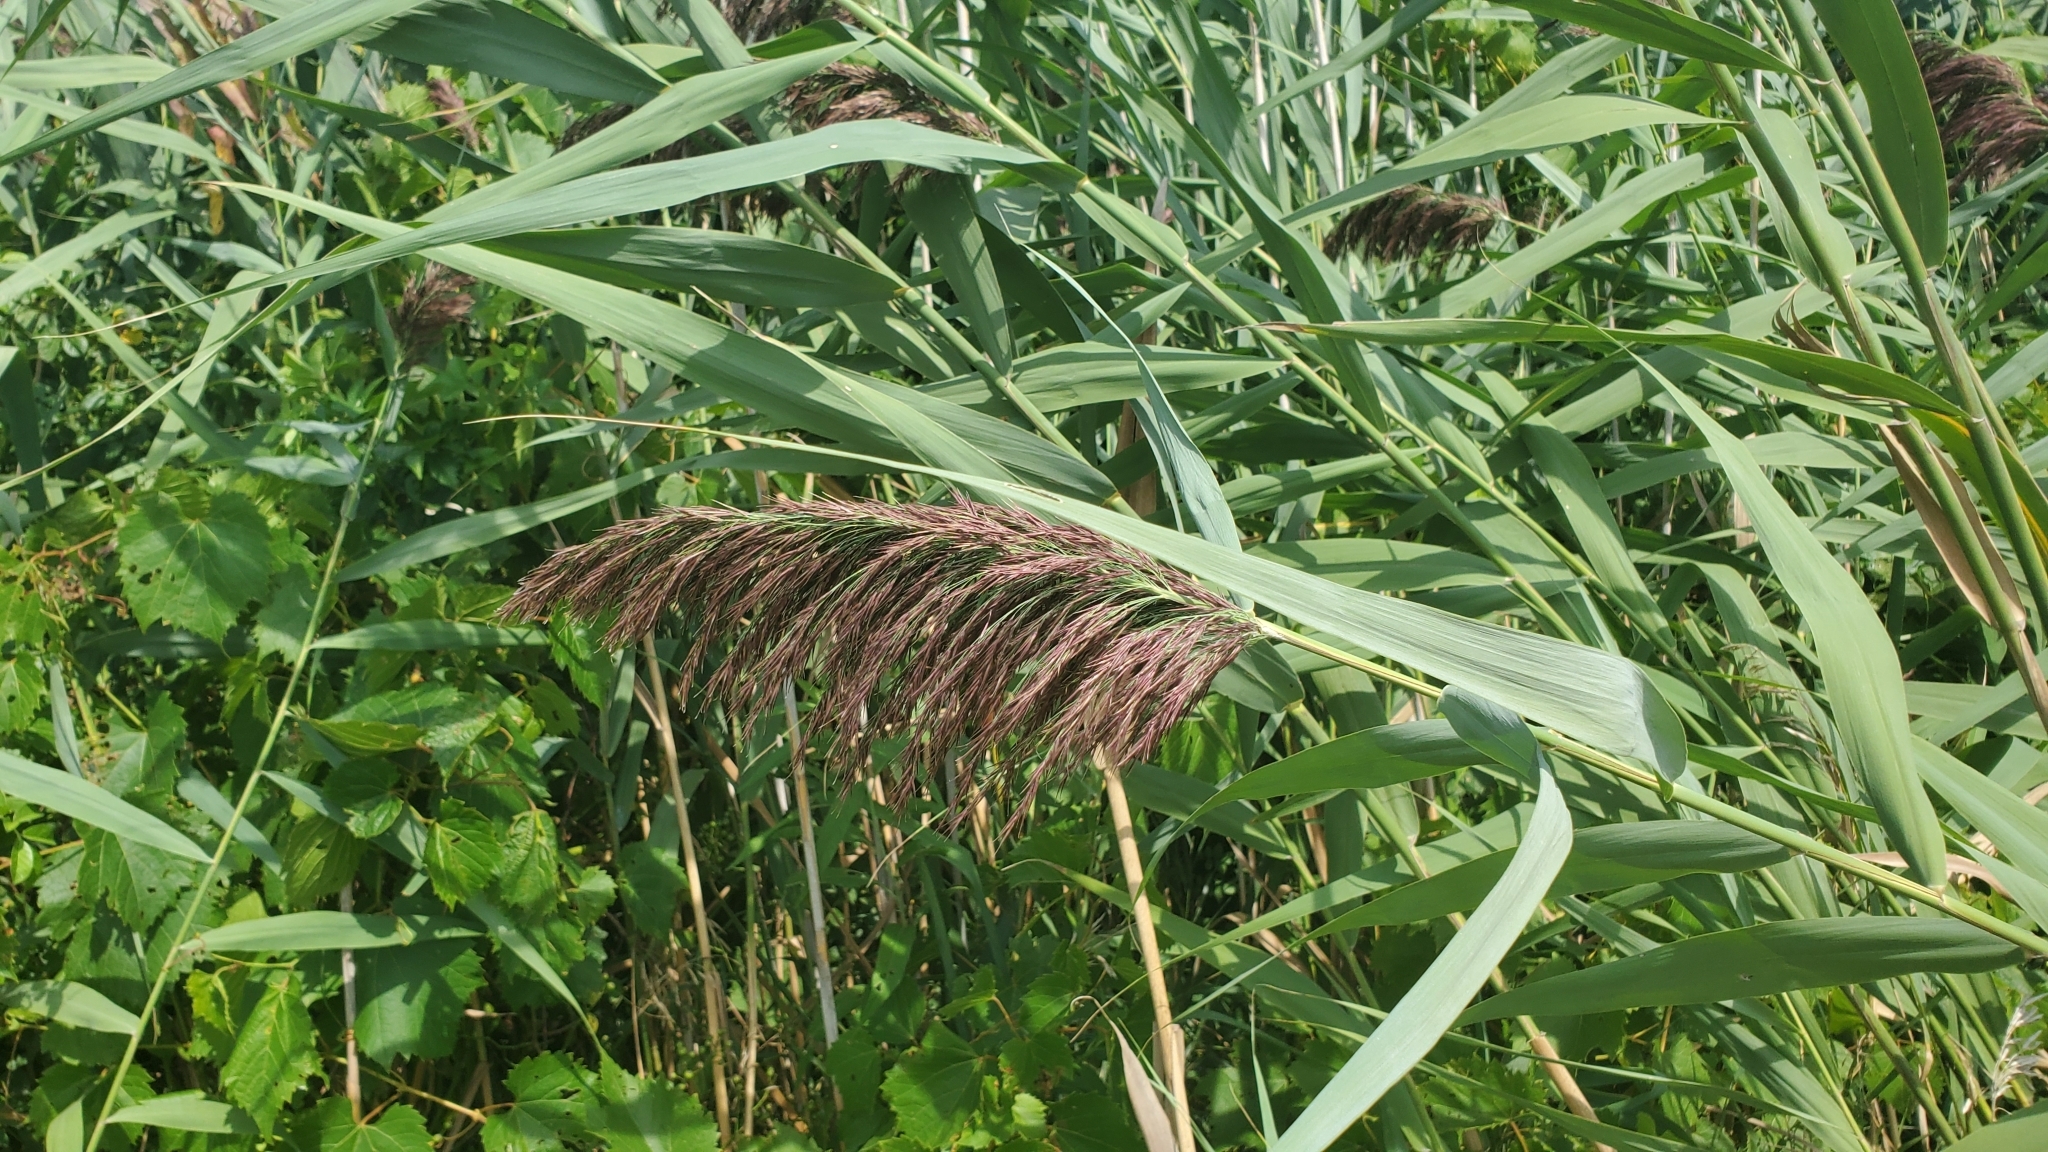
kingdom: Plantae
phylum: Tracheophyta
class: Liliopsida
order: Poales
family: Poaceae
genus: Phragmites
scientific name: Phragmites australis
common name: Common reed
